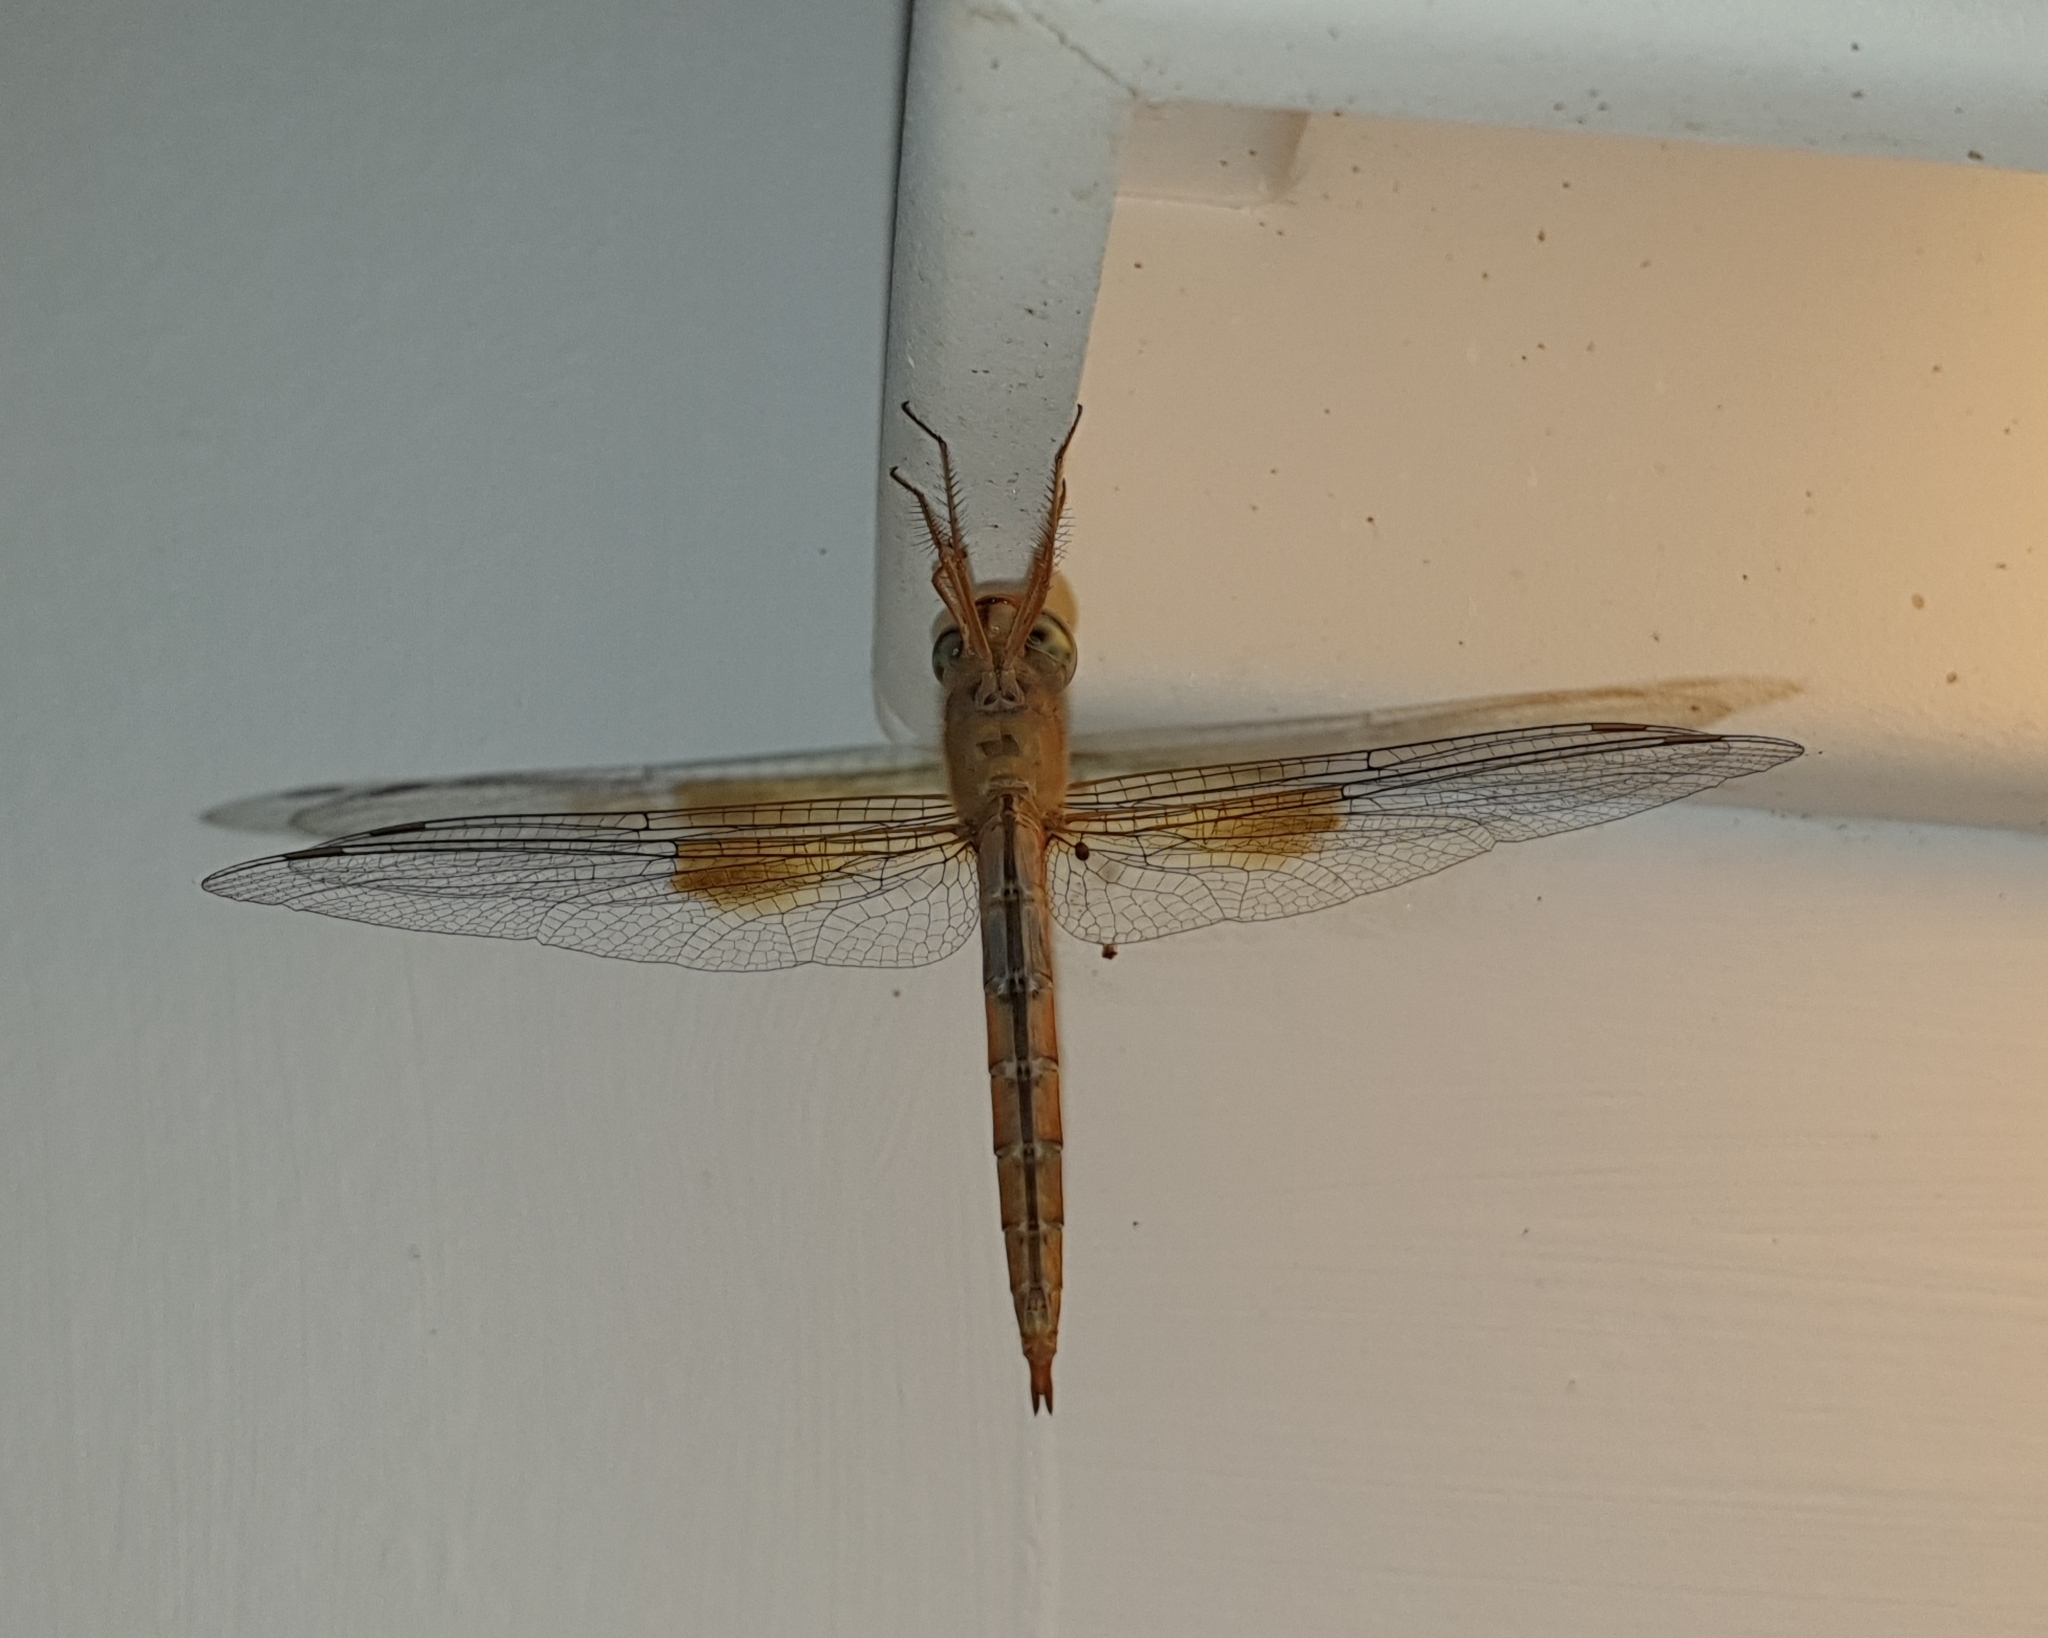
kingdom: Animalia
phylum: Arthropoda
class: Insecta
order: Odonata
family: Libellulidae
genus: Tholymis
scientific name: Tholymis tillarga
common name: Coral-tailed cloud wing
